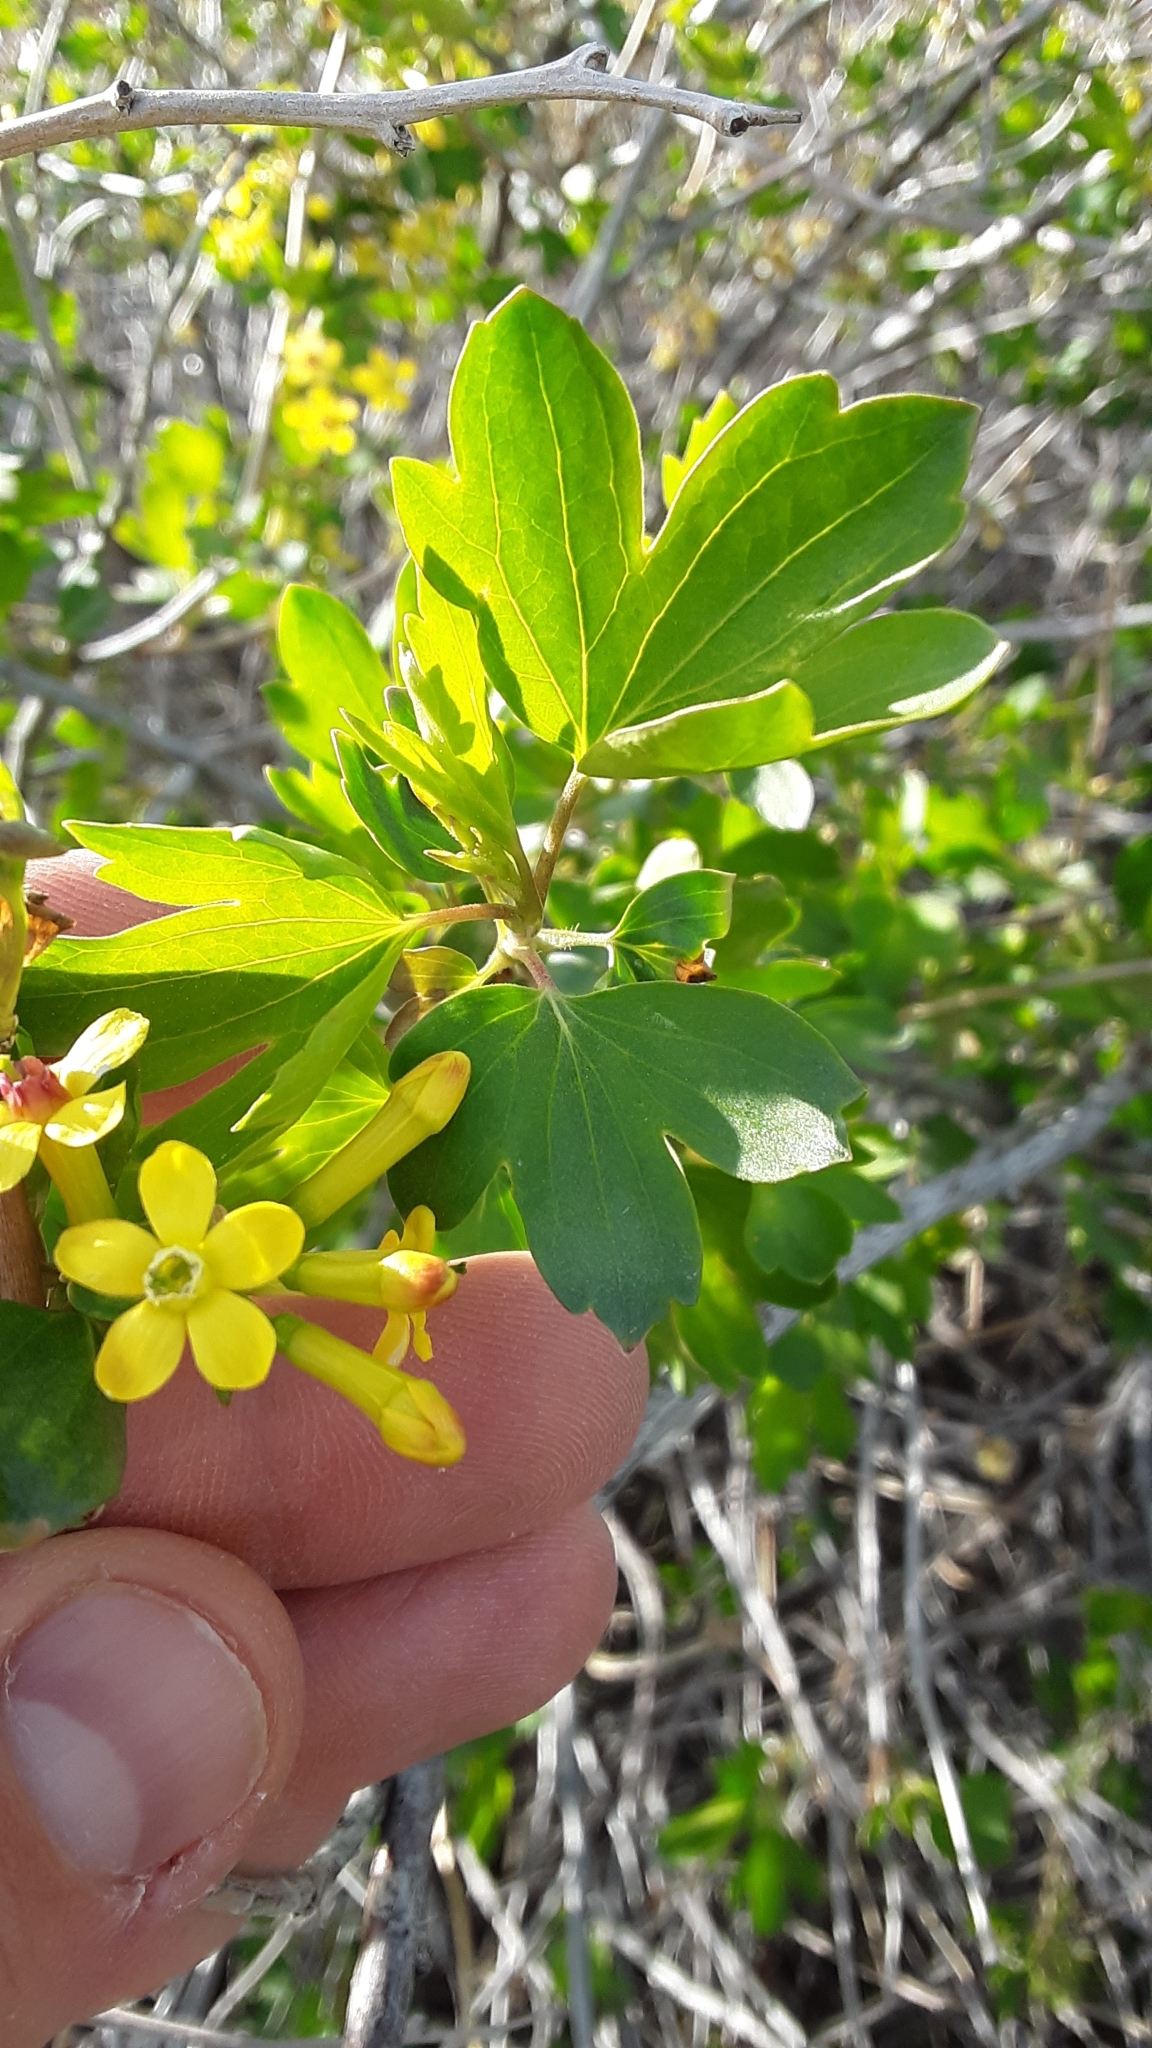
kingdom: Plantae
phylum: Tracheophyta
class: Magnoliopsida
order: Saxifragales
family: Grossulariaceae
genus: Ribes
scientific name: Ribes aureum
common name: Golden currant
